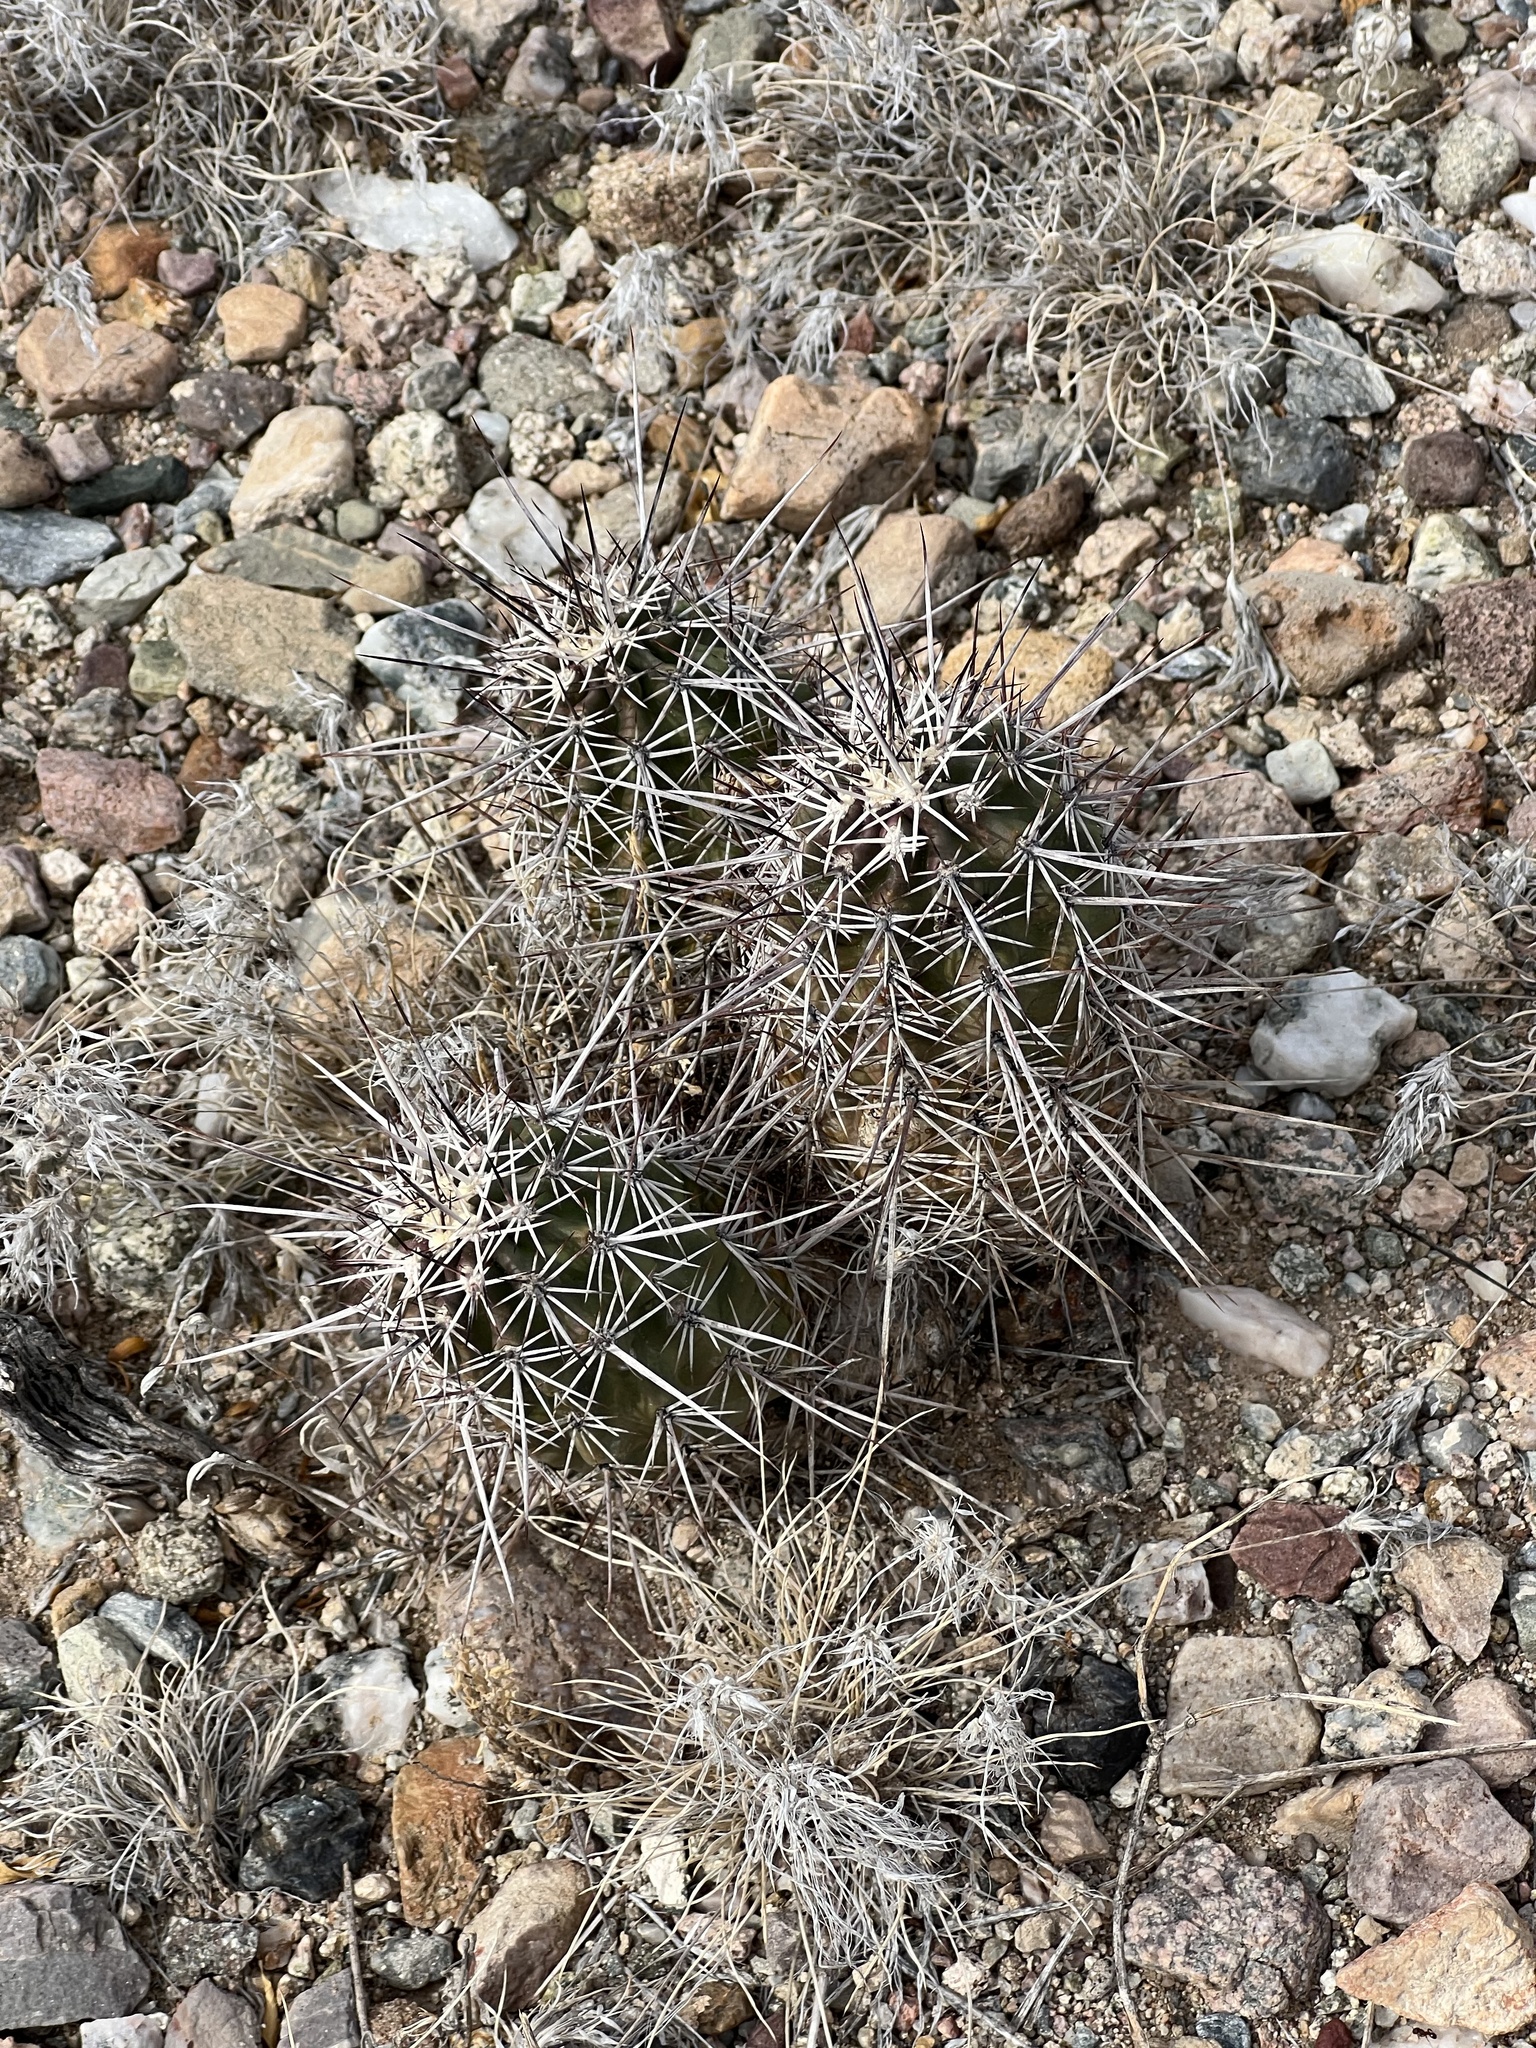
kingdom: Plantae
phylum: Tracheophyta
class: Magnoliopsida
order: Caryophyllales
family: Cactaceae
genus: Echinocereus
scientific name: Echinocereus fasciculatus
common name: Bundle hedgehog
